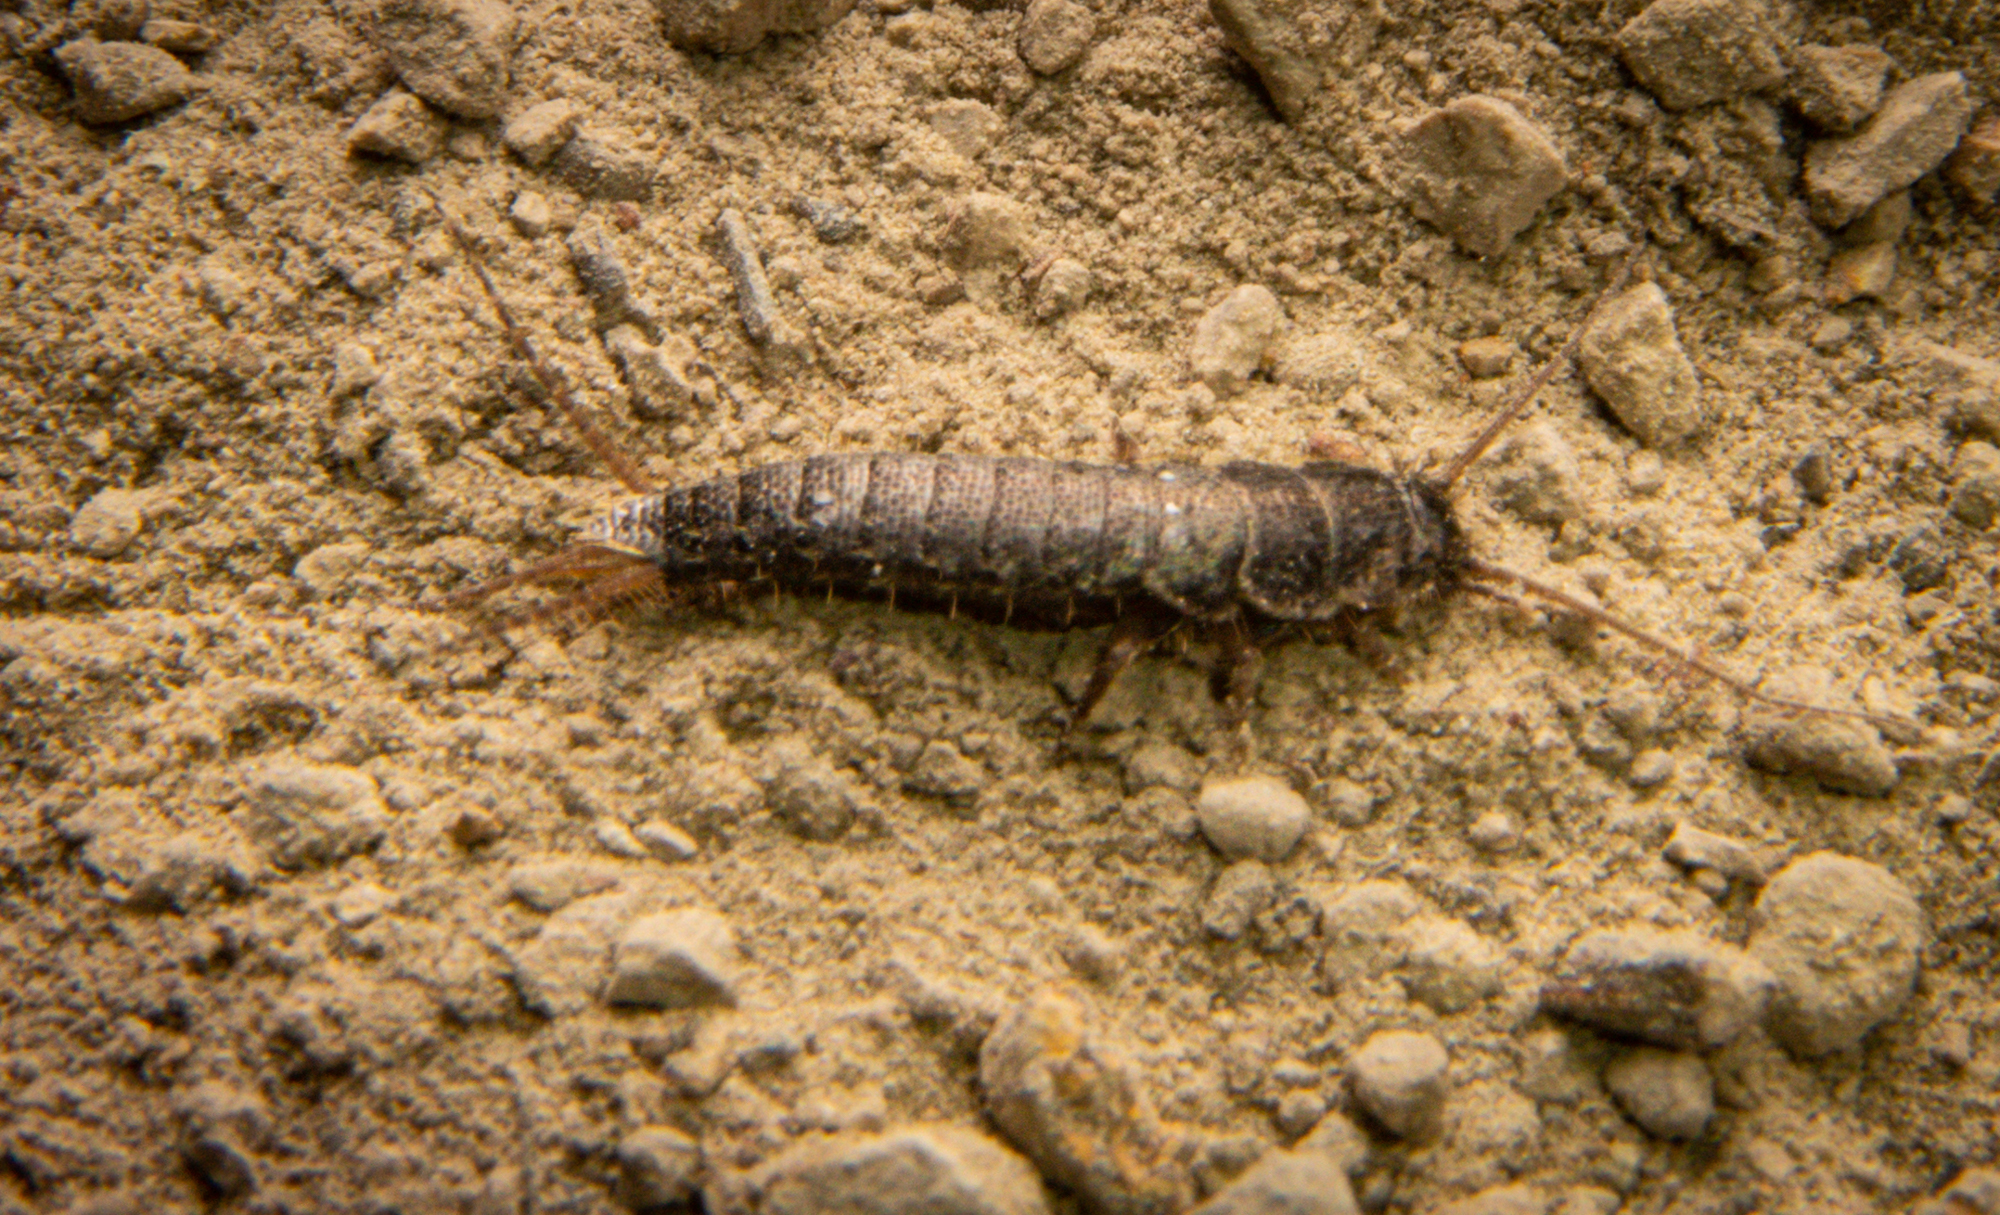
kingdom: Animalia
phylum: Arthropoda
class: Insecta
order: Zygentoma
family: Lepismatidae
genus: Allacrotelsa
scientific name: Allacrotelsa spinulata
